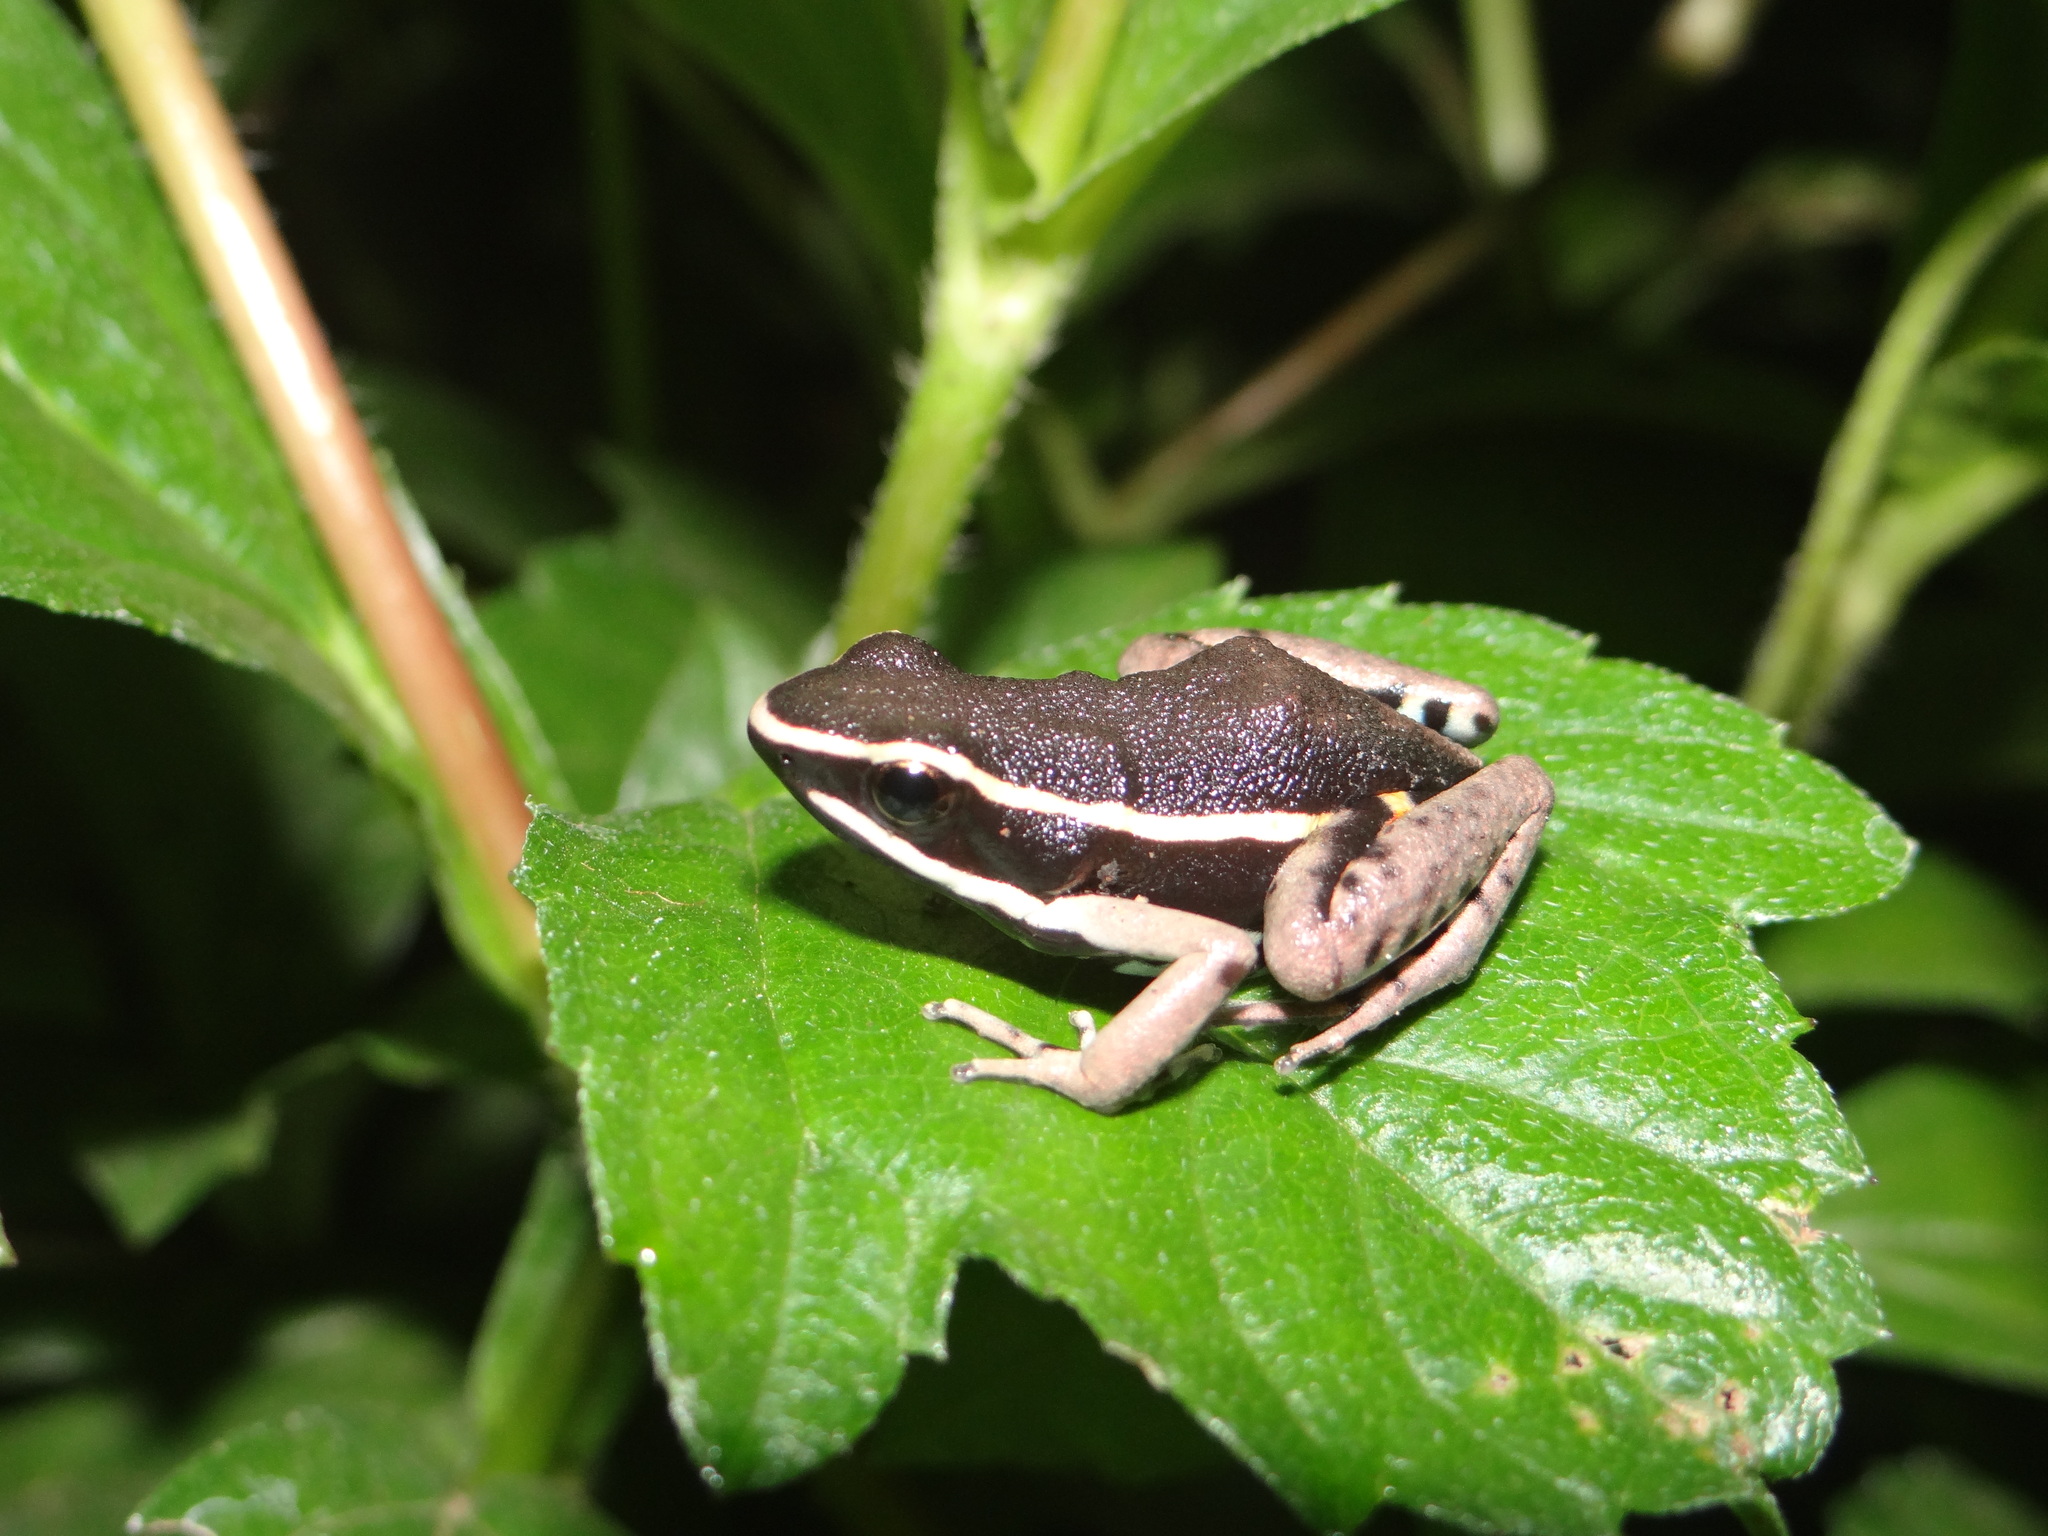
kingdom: Animalia
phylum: Chordata
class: Amphibia
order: Anura
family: Dendrobatidae
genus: Ameerega
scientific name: Ameerega picta
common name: Spot-legged poison frog
